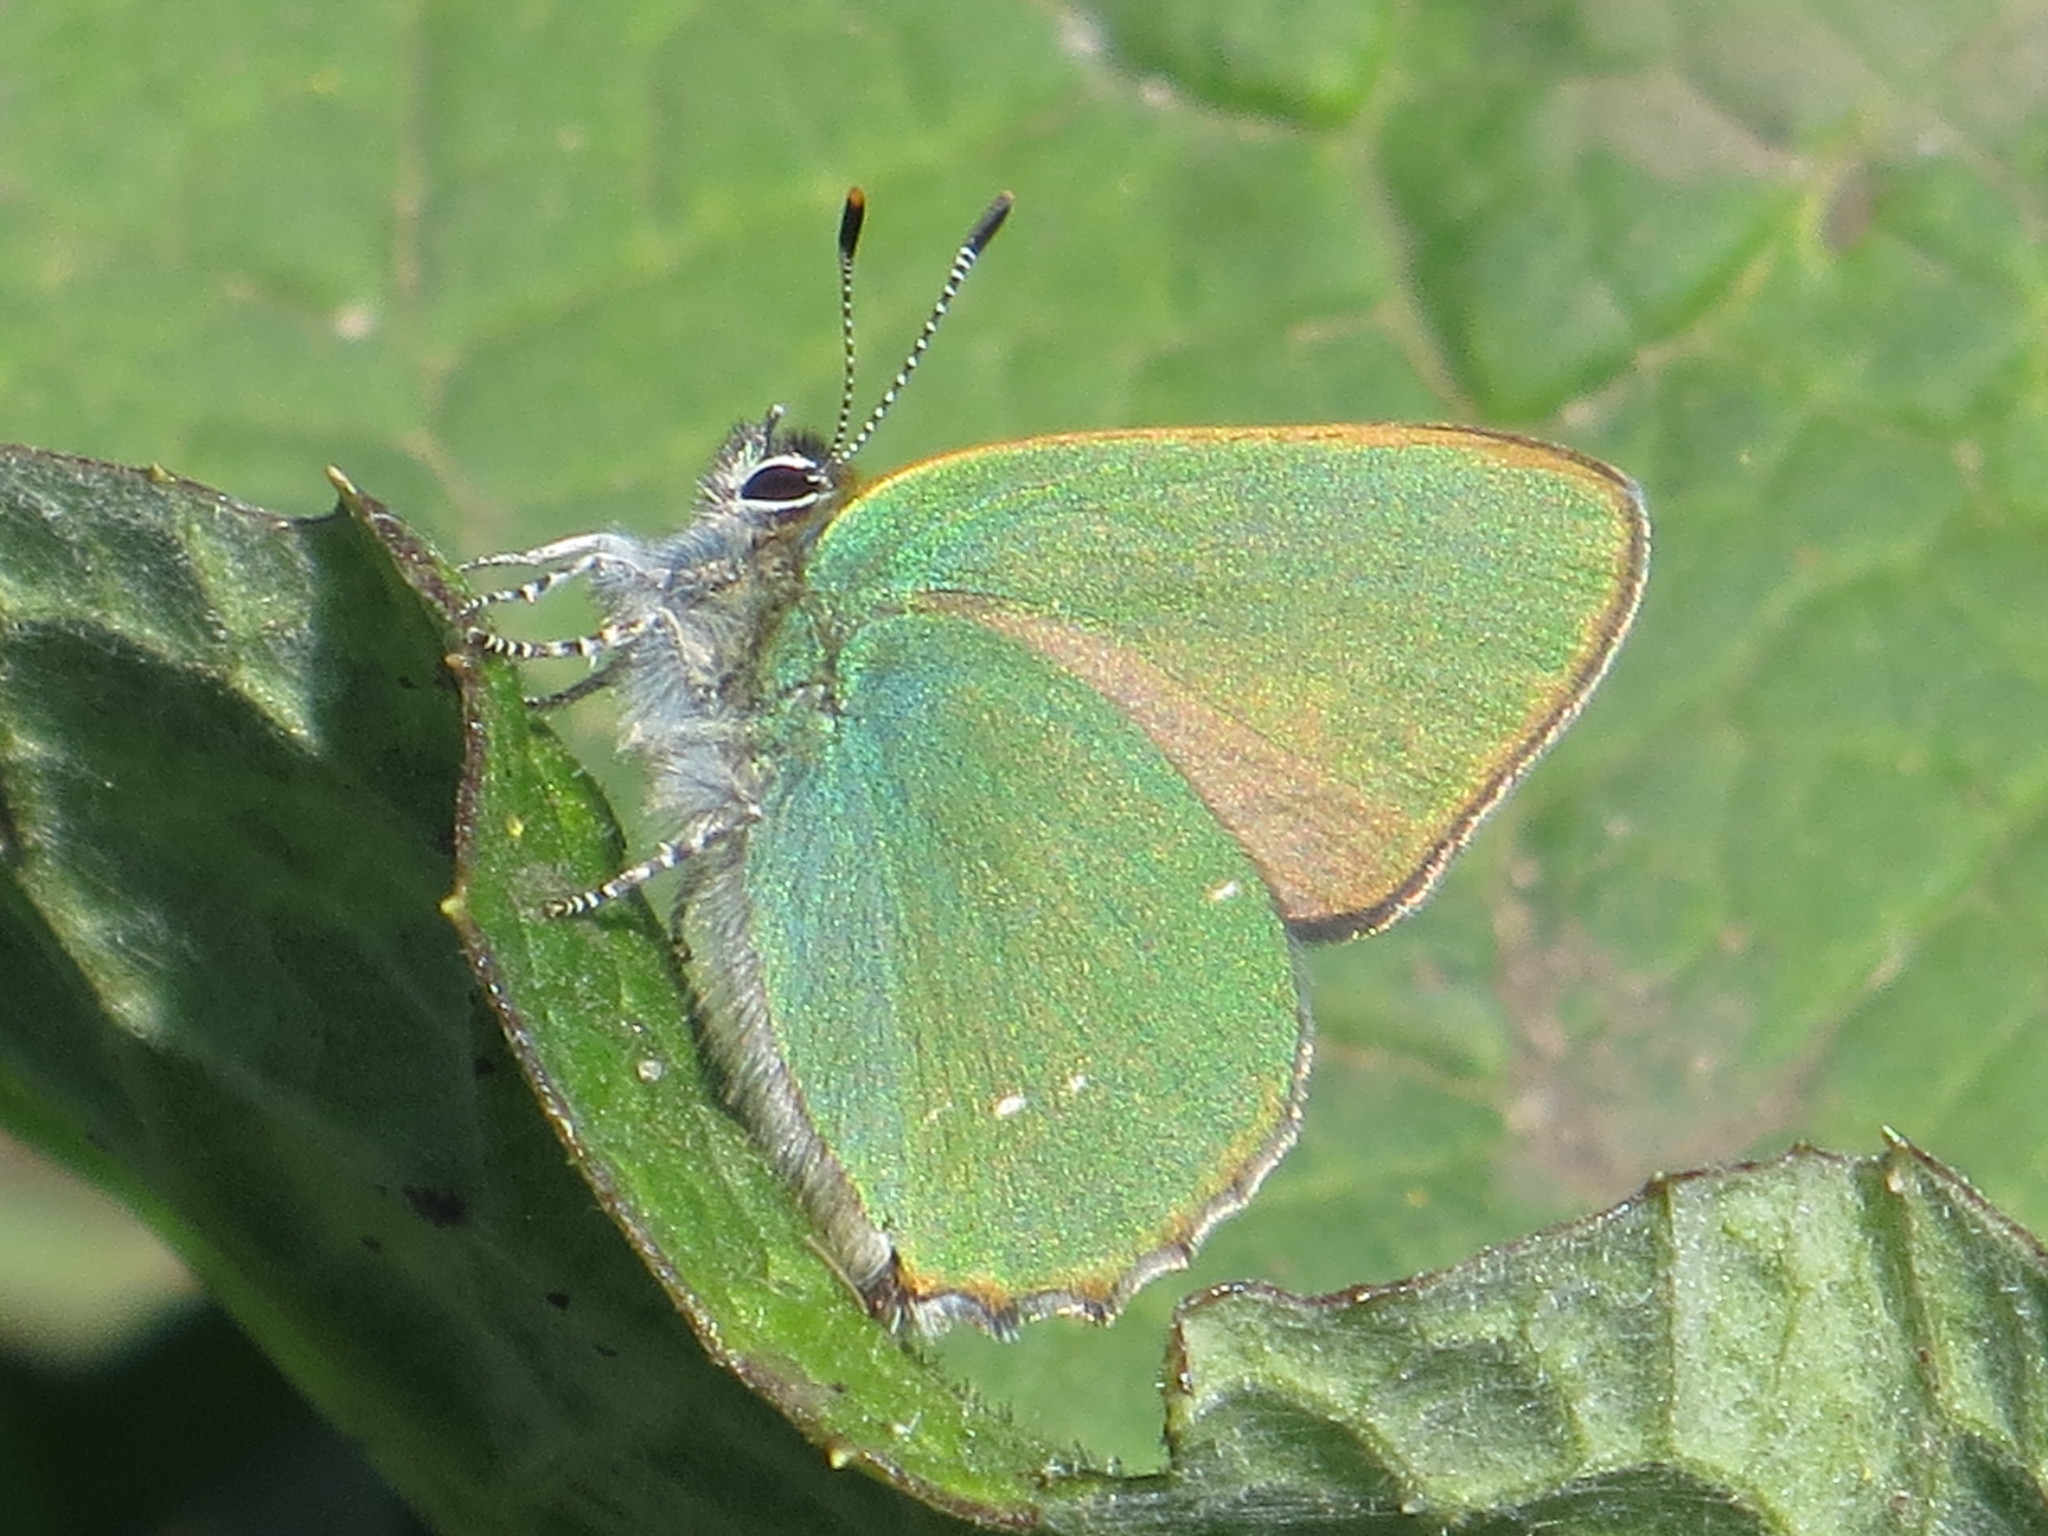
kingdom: Animalia
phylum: Arthropoda
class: Insecta
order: Lepidoptera
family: Lycaenidae
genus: Callophrys
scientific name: Callophrys rubi
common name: Green hairstreak
